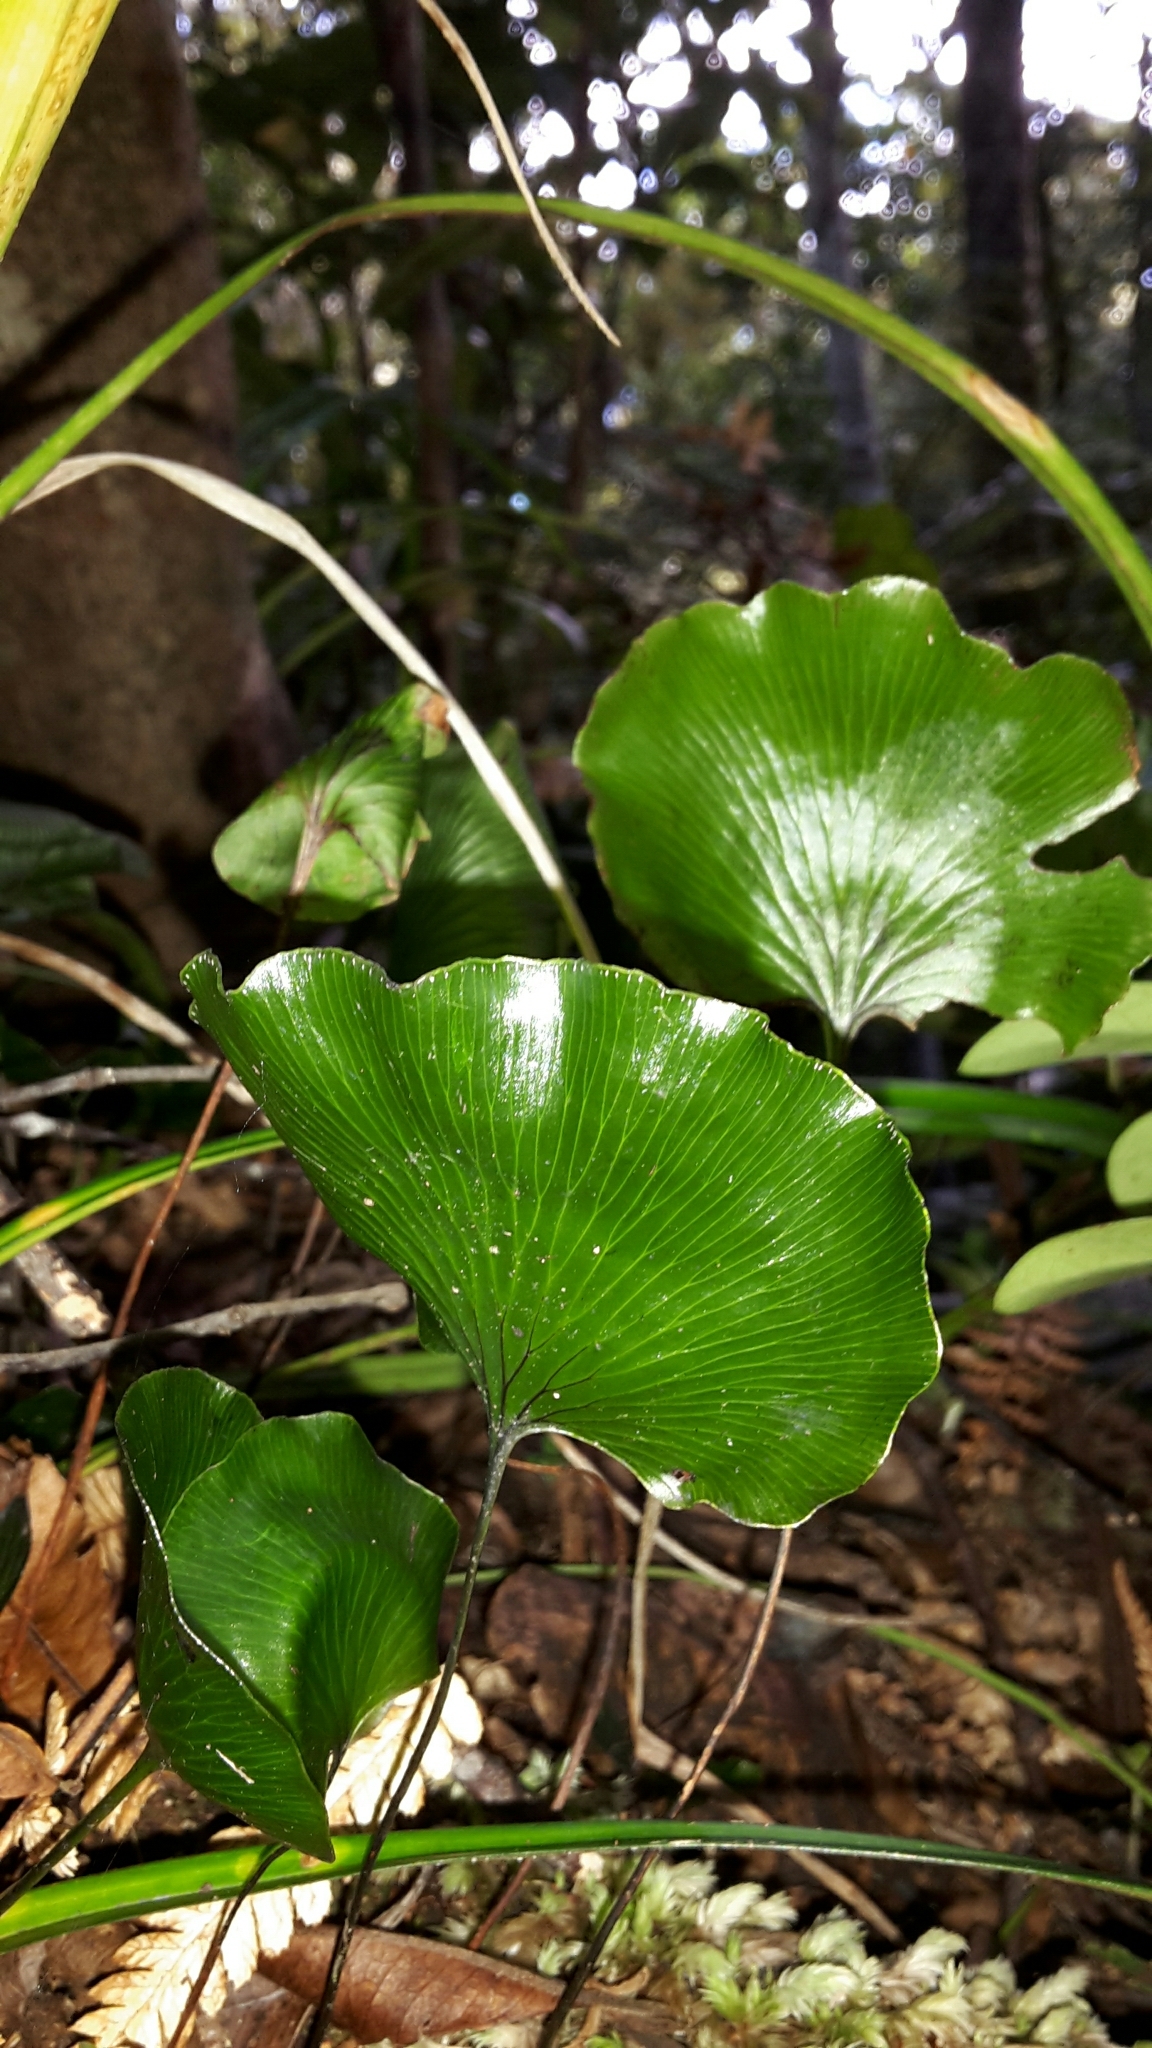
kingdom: Plantae
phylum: Tracheophyta
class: Polypodiopsida
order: Hymenophyllales
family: Hymenophyllaceae
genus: Hymenophyllum
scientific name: Hymenophyllum nephrophyllum
